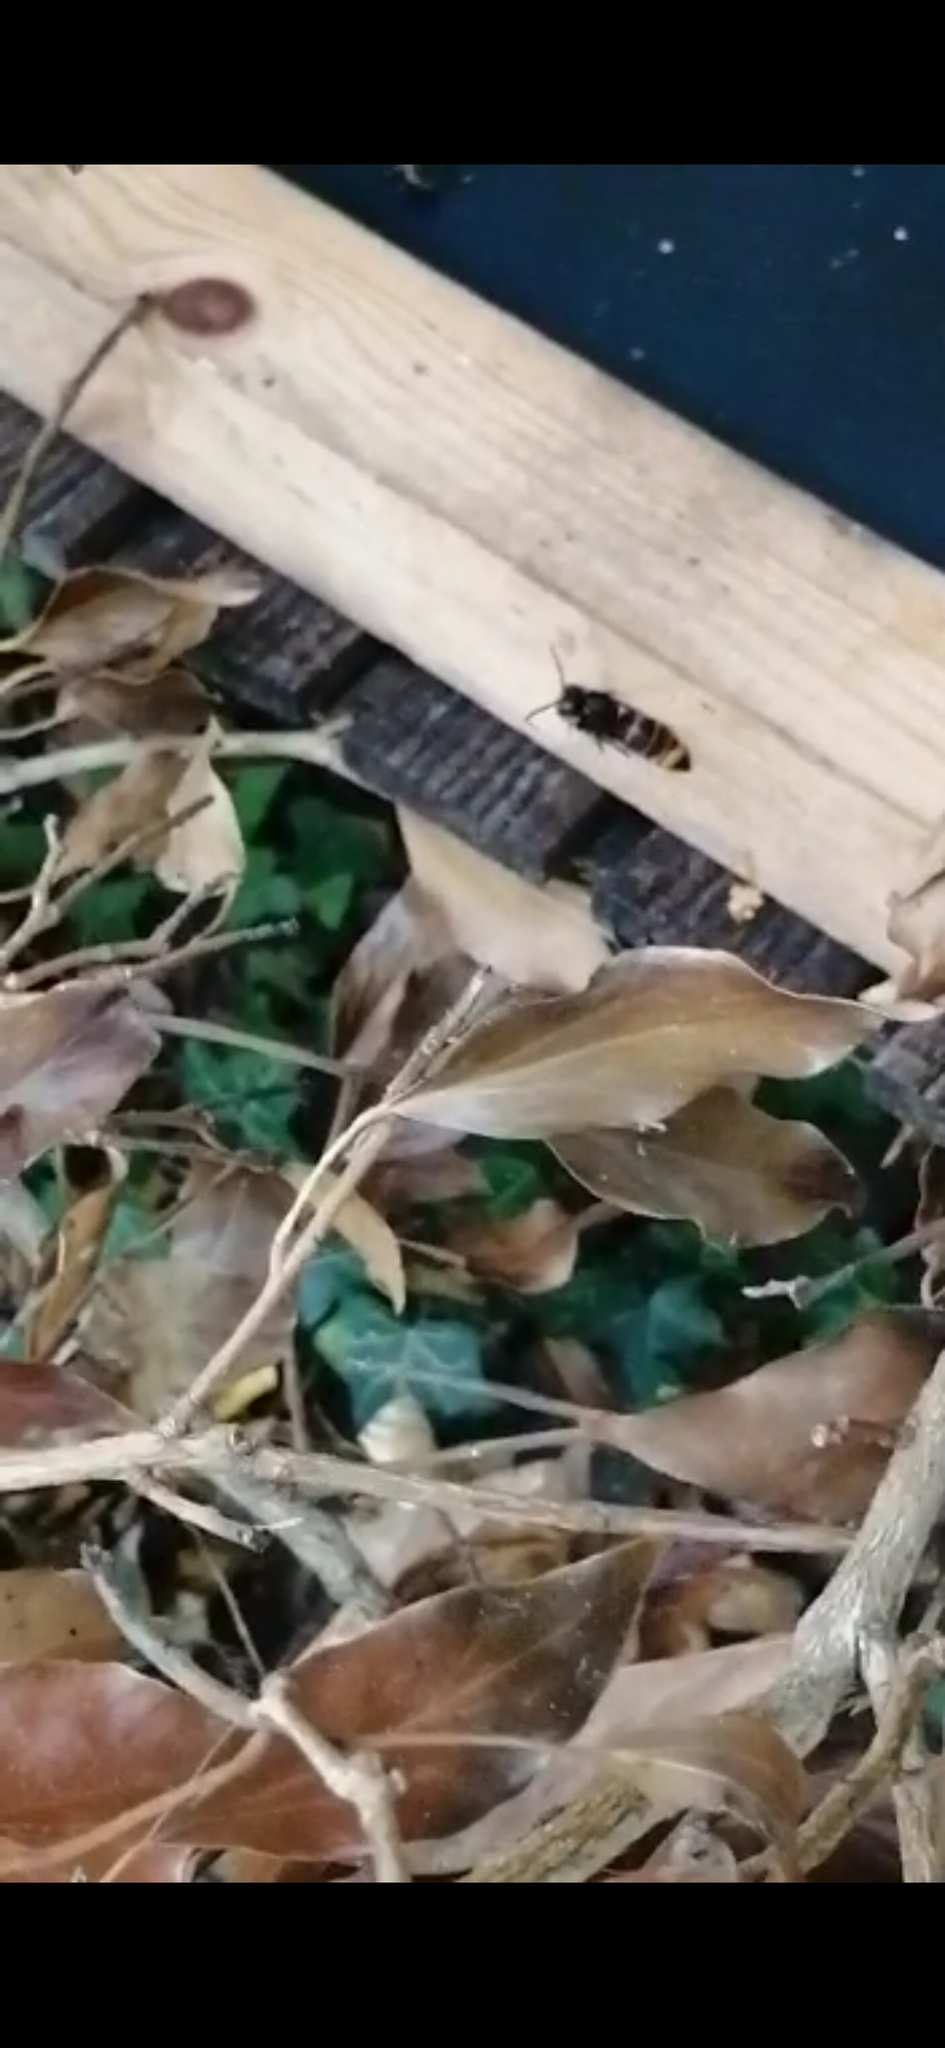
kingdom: Animalia
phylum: Arthropoda
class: Insecta
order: Hymenoptera
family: Vespidae
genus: Vespa
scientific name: Vespa velutina
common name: Asian hornet
